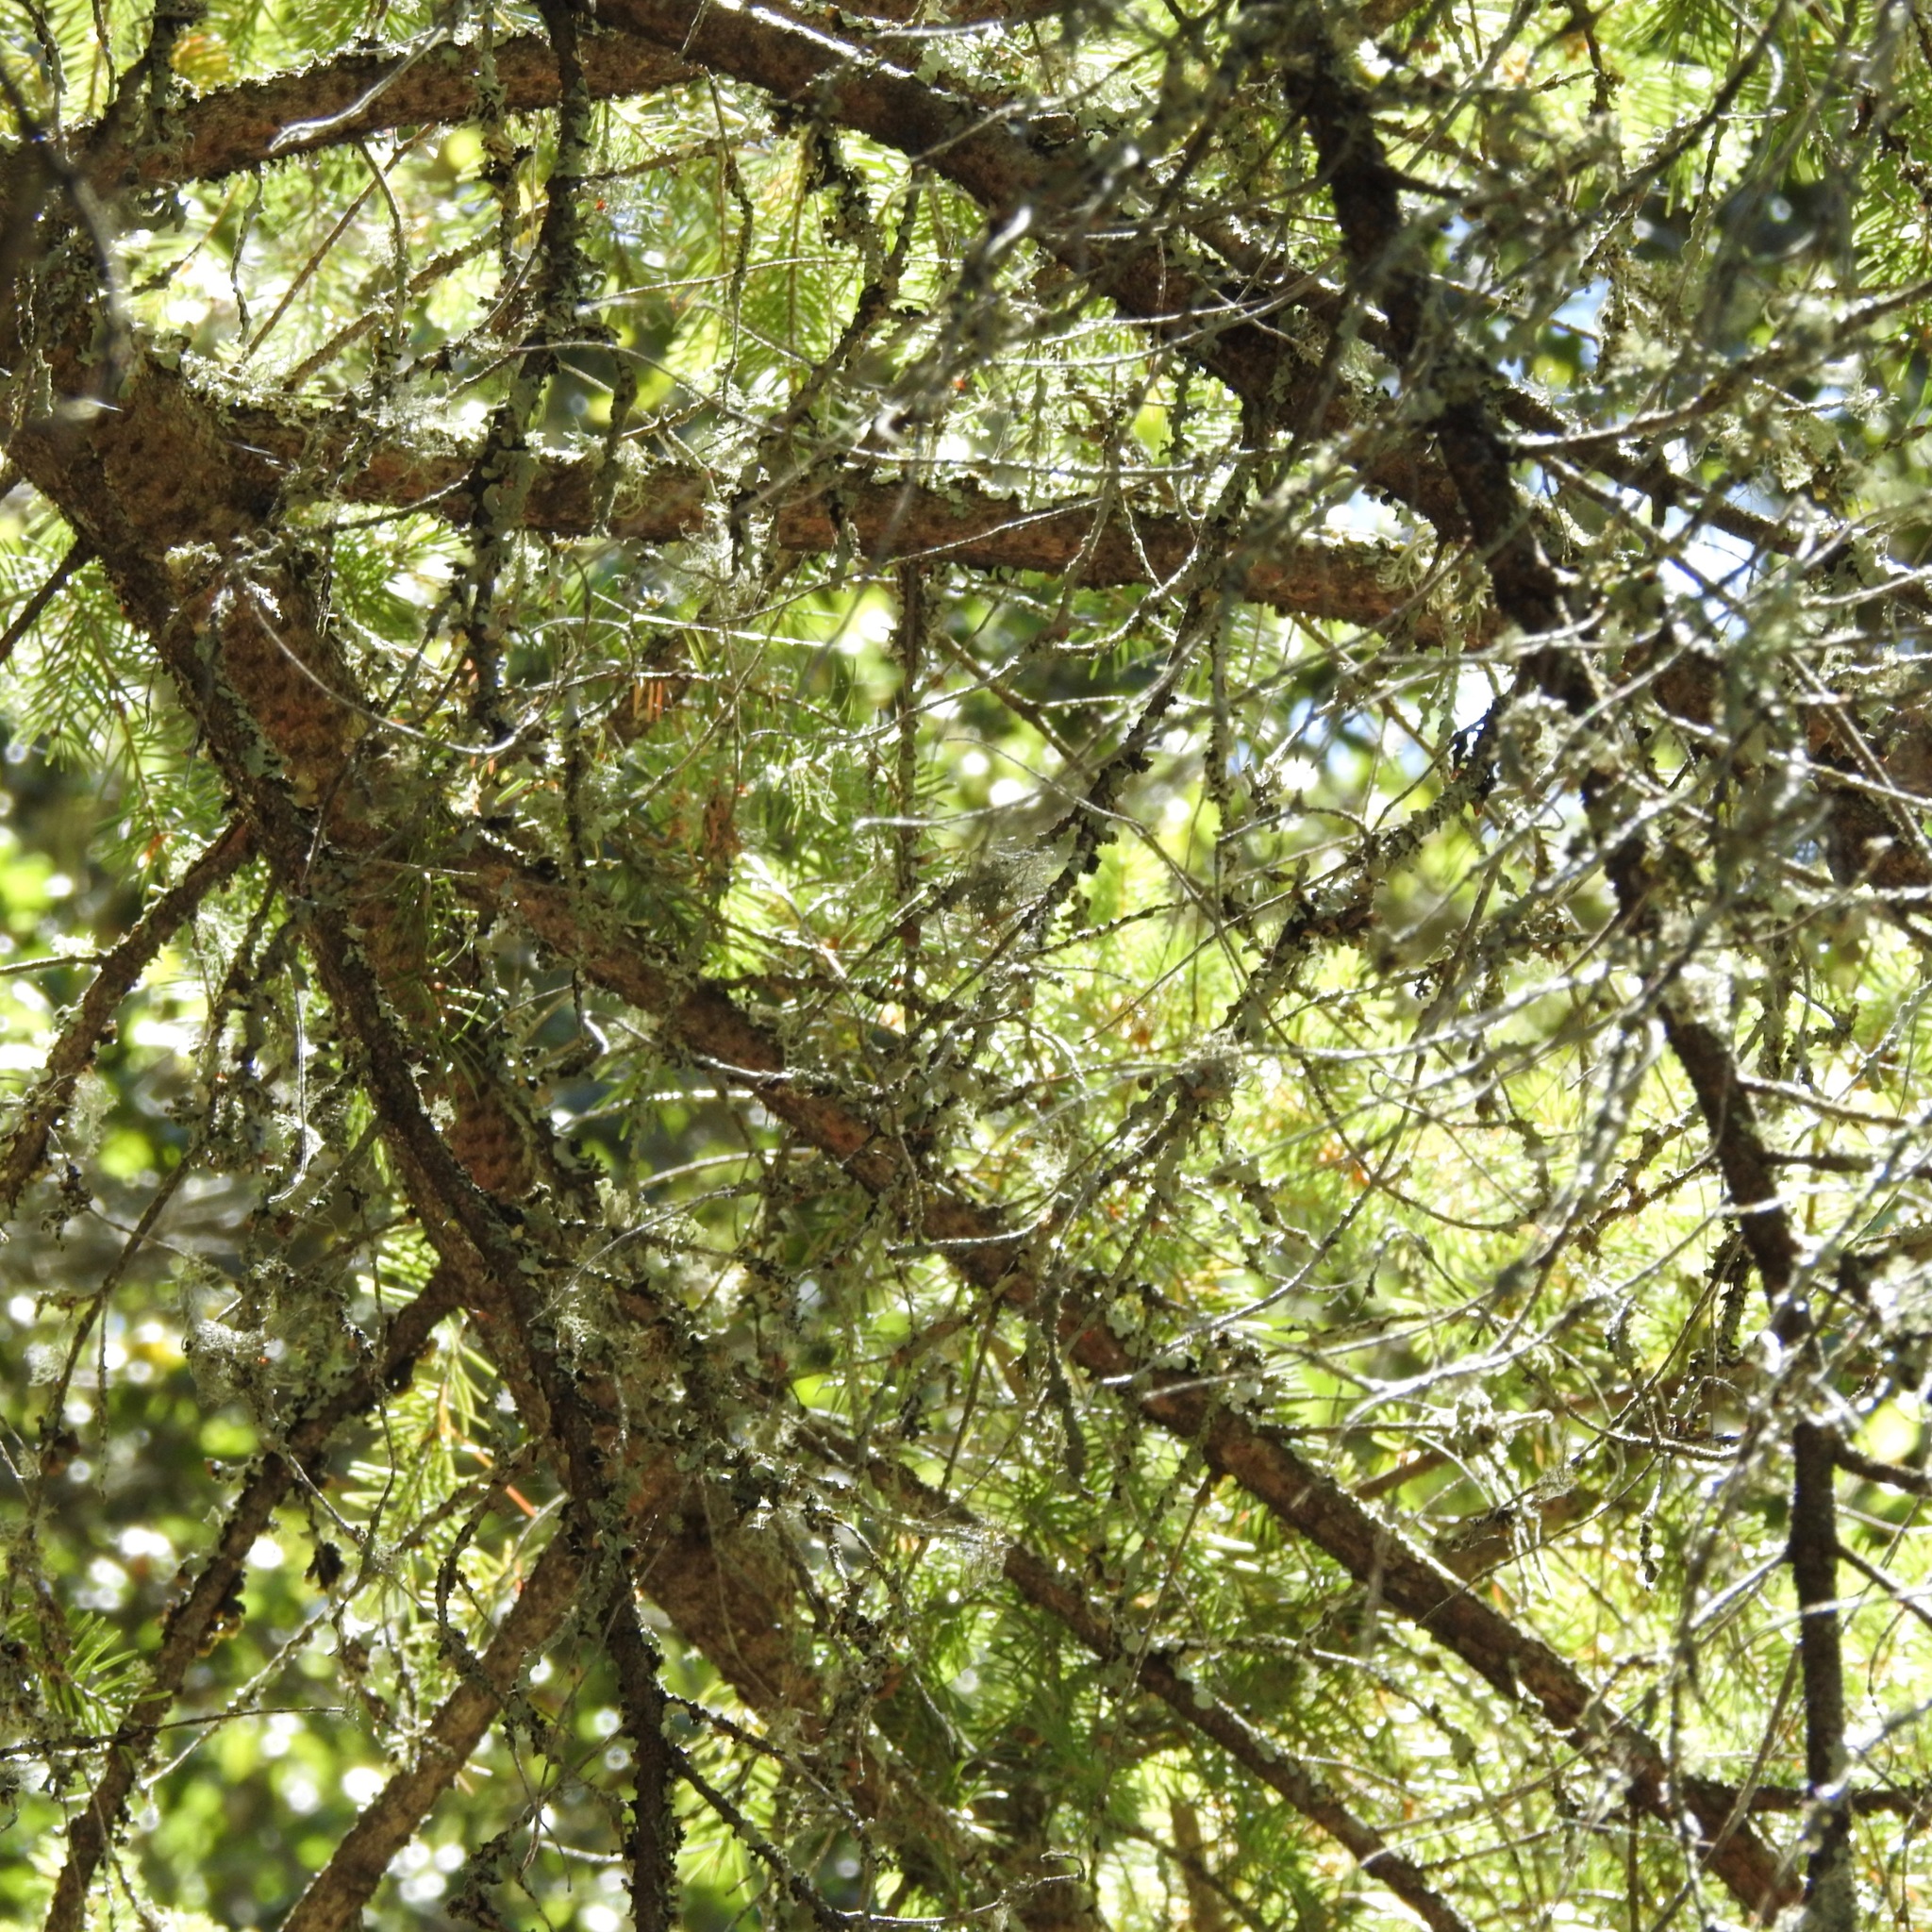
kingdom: Plantae
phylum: Tracheophyta
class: Pinopsida
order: Pinales
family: Pinaceae
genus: Pseudotsuga
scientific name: Pseudotsuga menziesii
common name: Douglas fir
